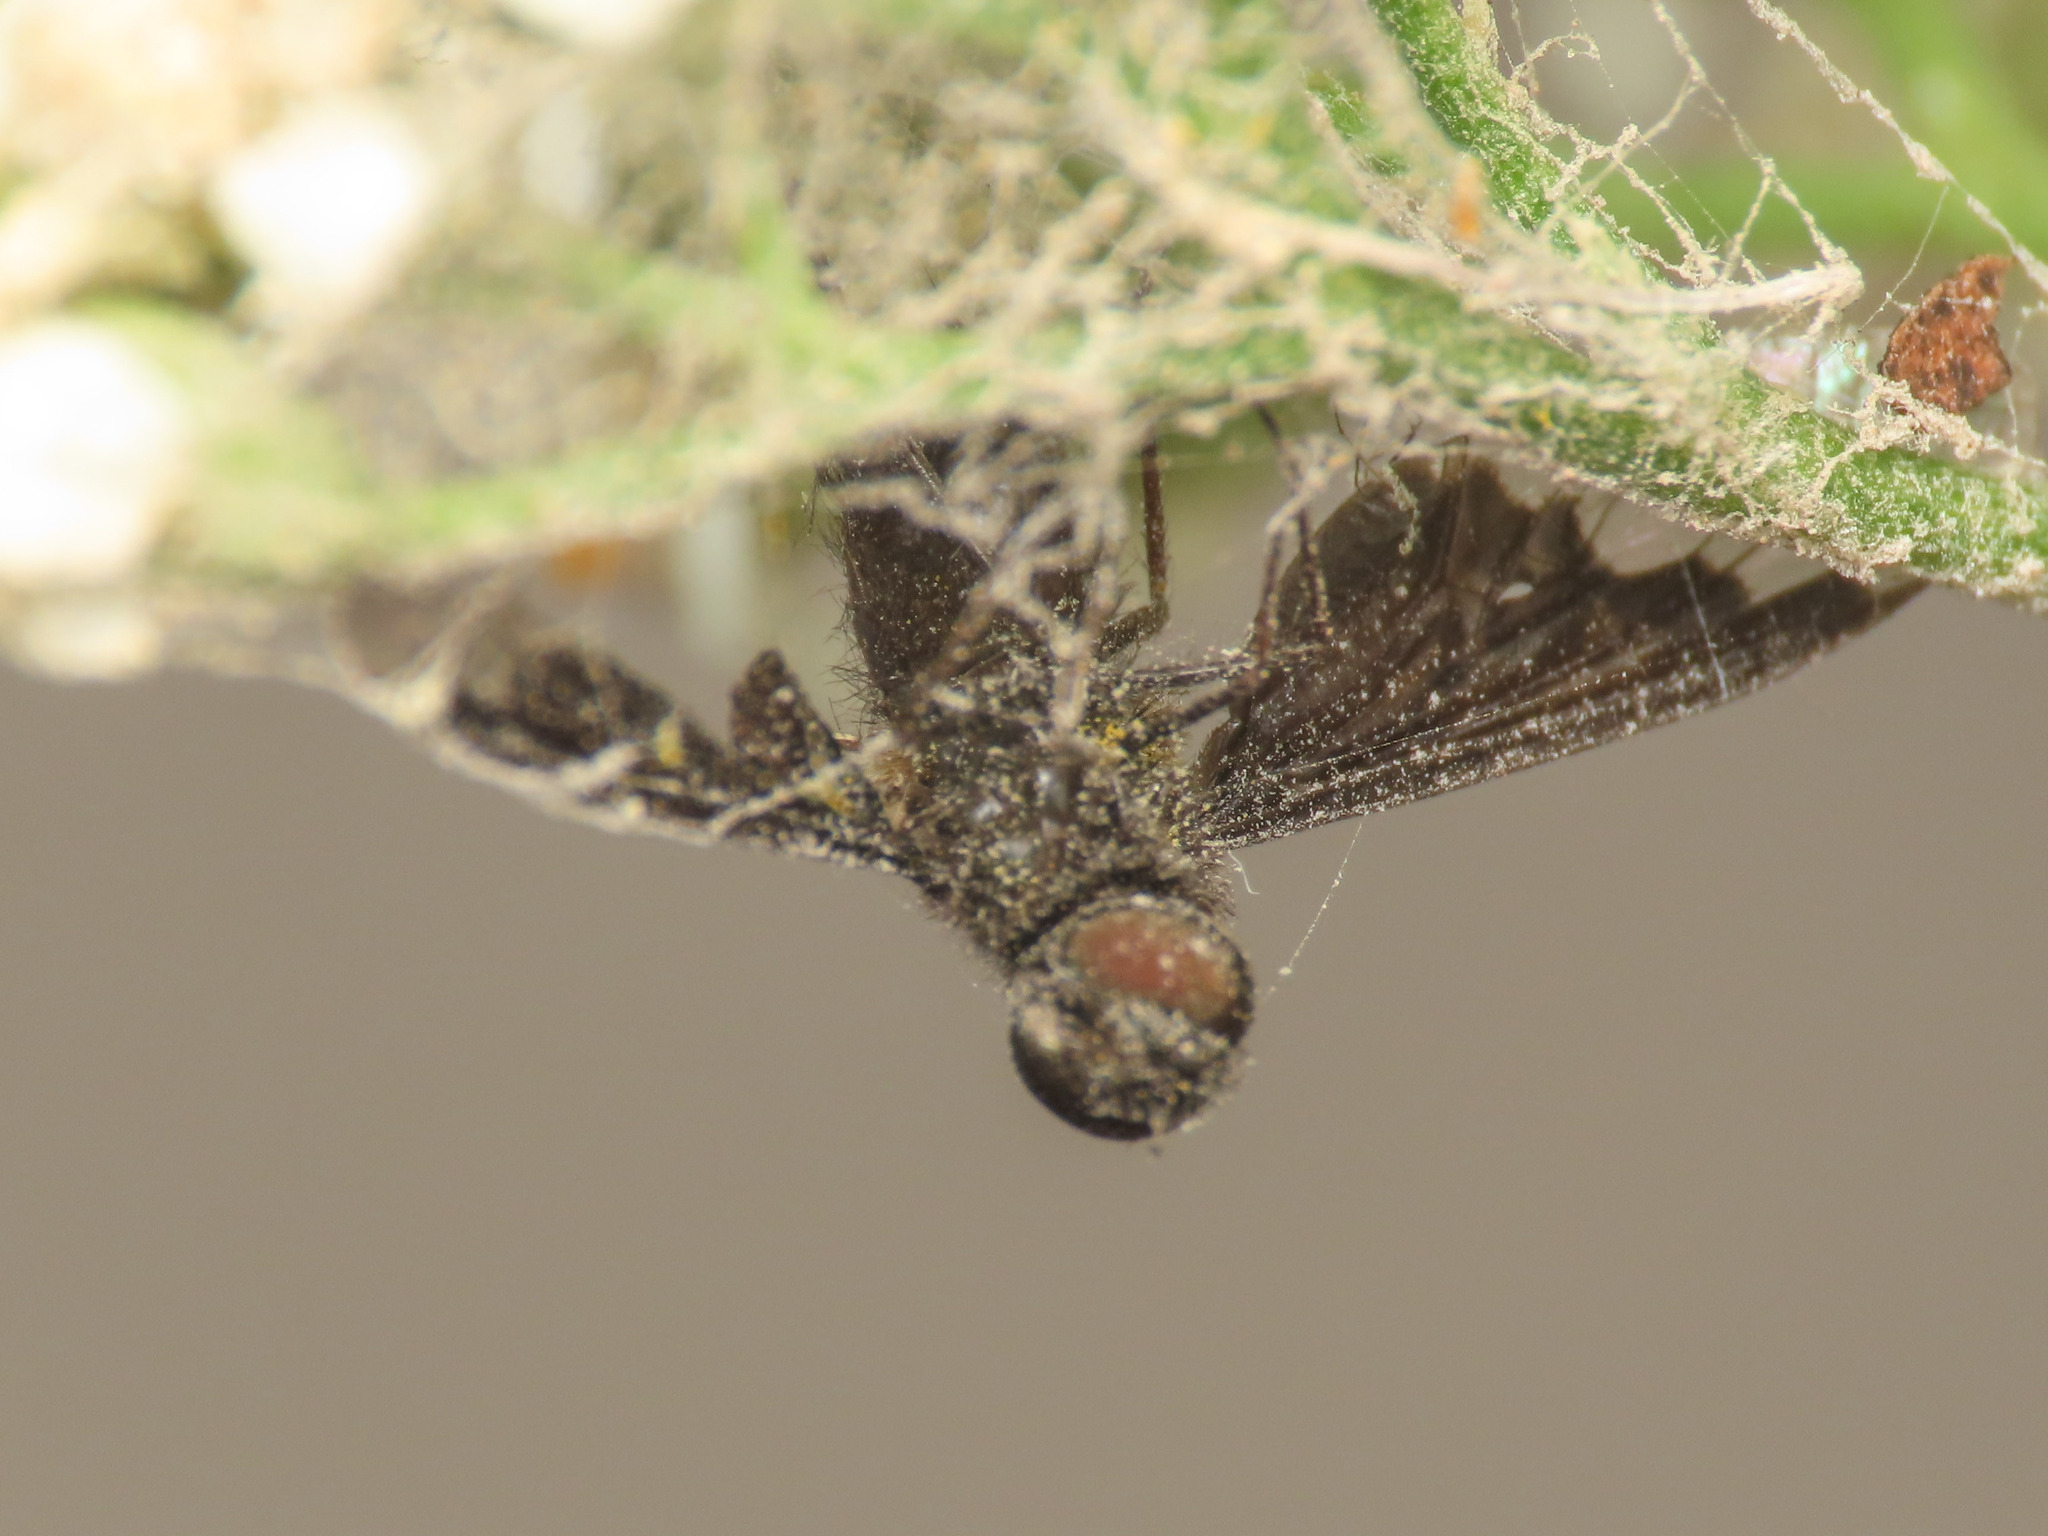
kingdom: Animalia
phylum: Arthropoda
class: Insecta
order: Diptera
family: Bombyliidae
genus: Hemipenthes
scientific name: Hemipenthes morio
